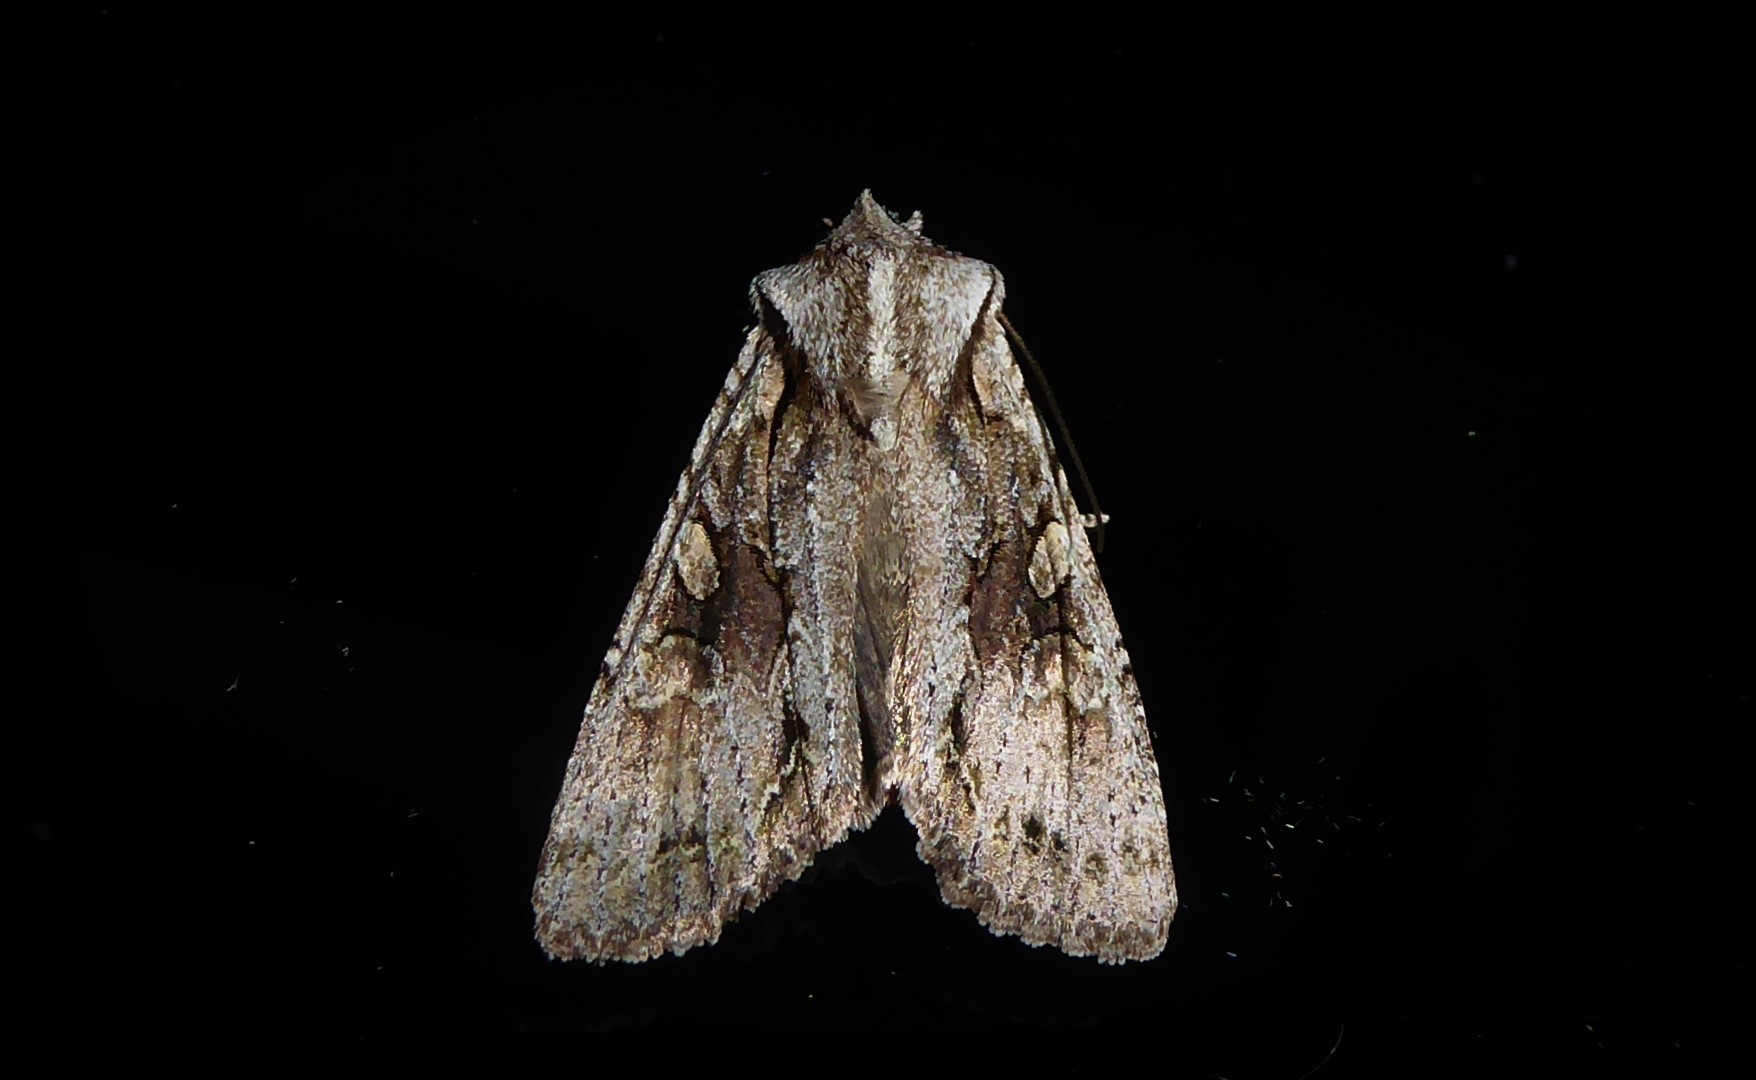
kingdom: Animalia
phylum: Arthropoda
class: Insecta
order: Lepidoptera
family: Noctuidae
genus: Ichneutica
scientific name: Ichneutica mutans
